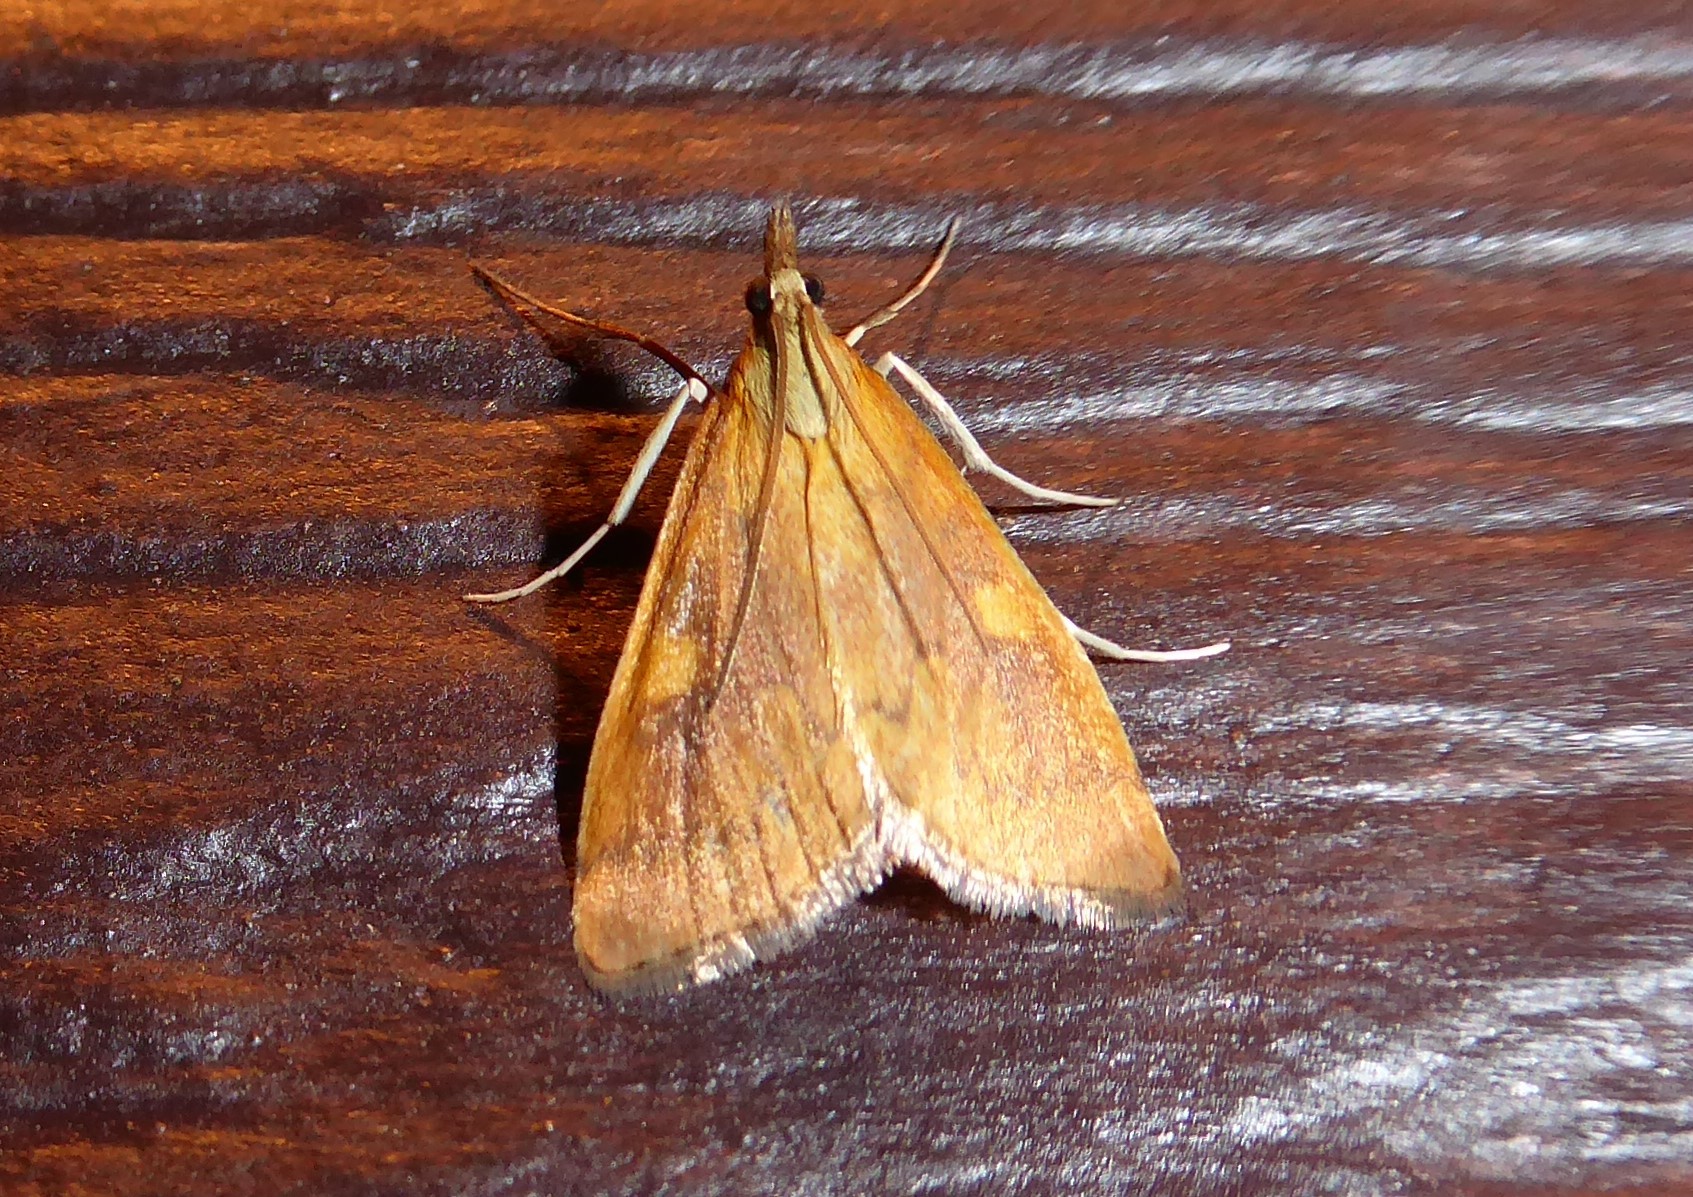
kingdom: Animalia
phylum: Arthropoda
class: Insecta
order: Lepidoptera
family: Crambidae
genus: Udea
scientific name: Udea Mnesictena flavidalis
